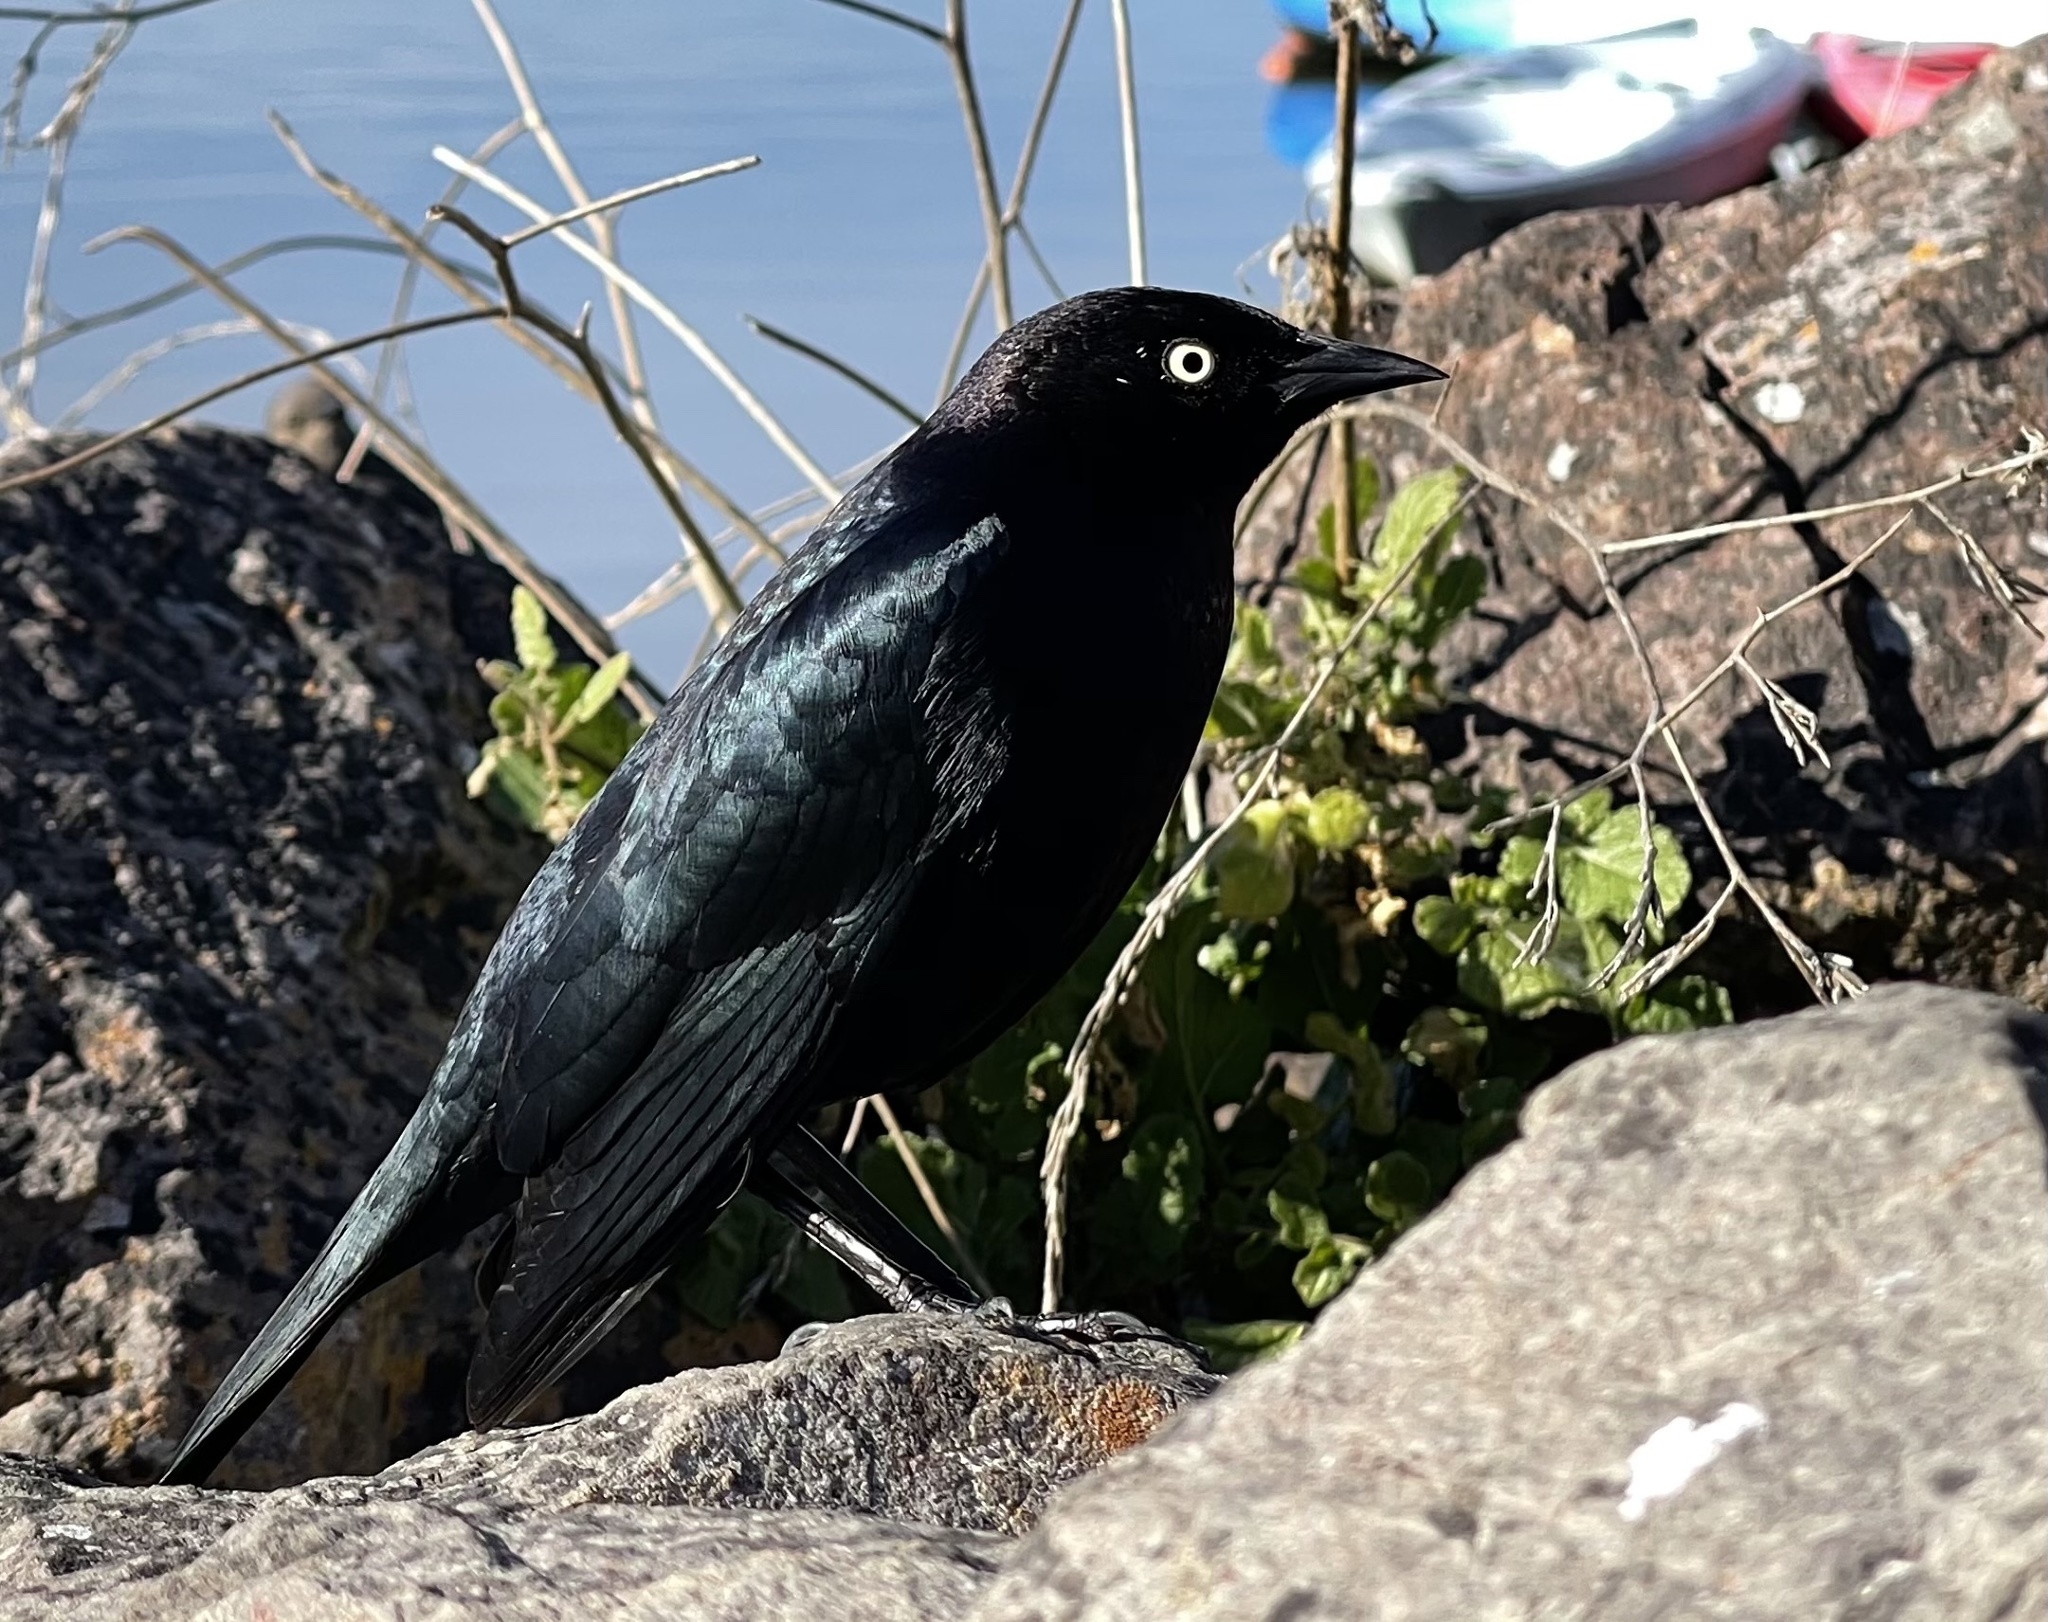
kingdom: Animalia
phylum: Chordata
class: Aves
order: Passeriformes
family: Icteridae
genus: Euphagus
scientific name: Euphagus cyanocephalus
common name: Brewer's blackbird
